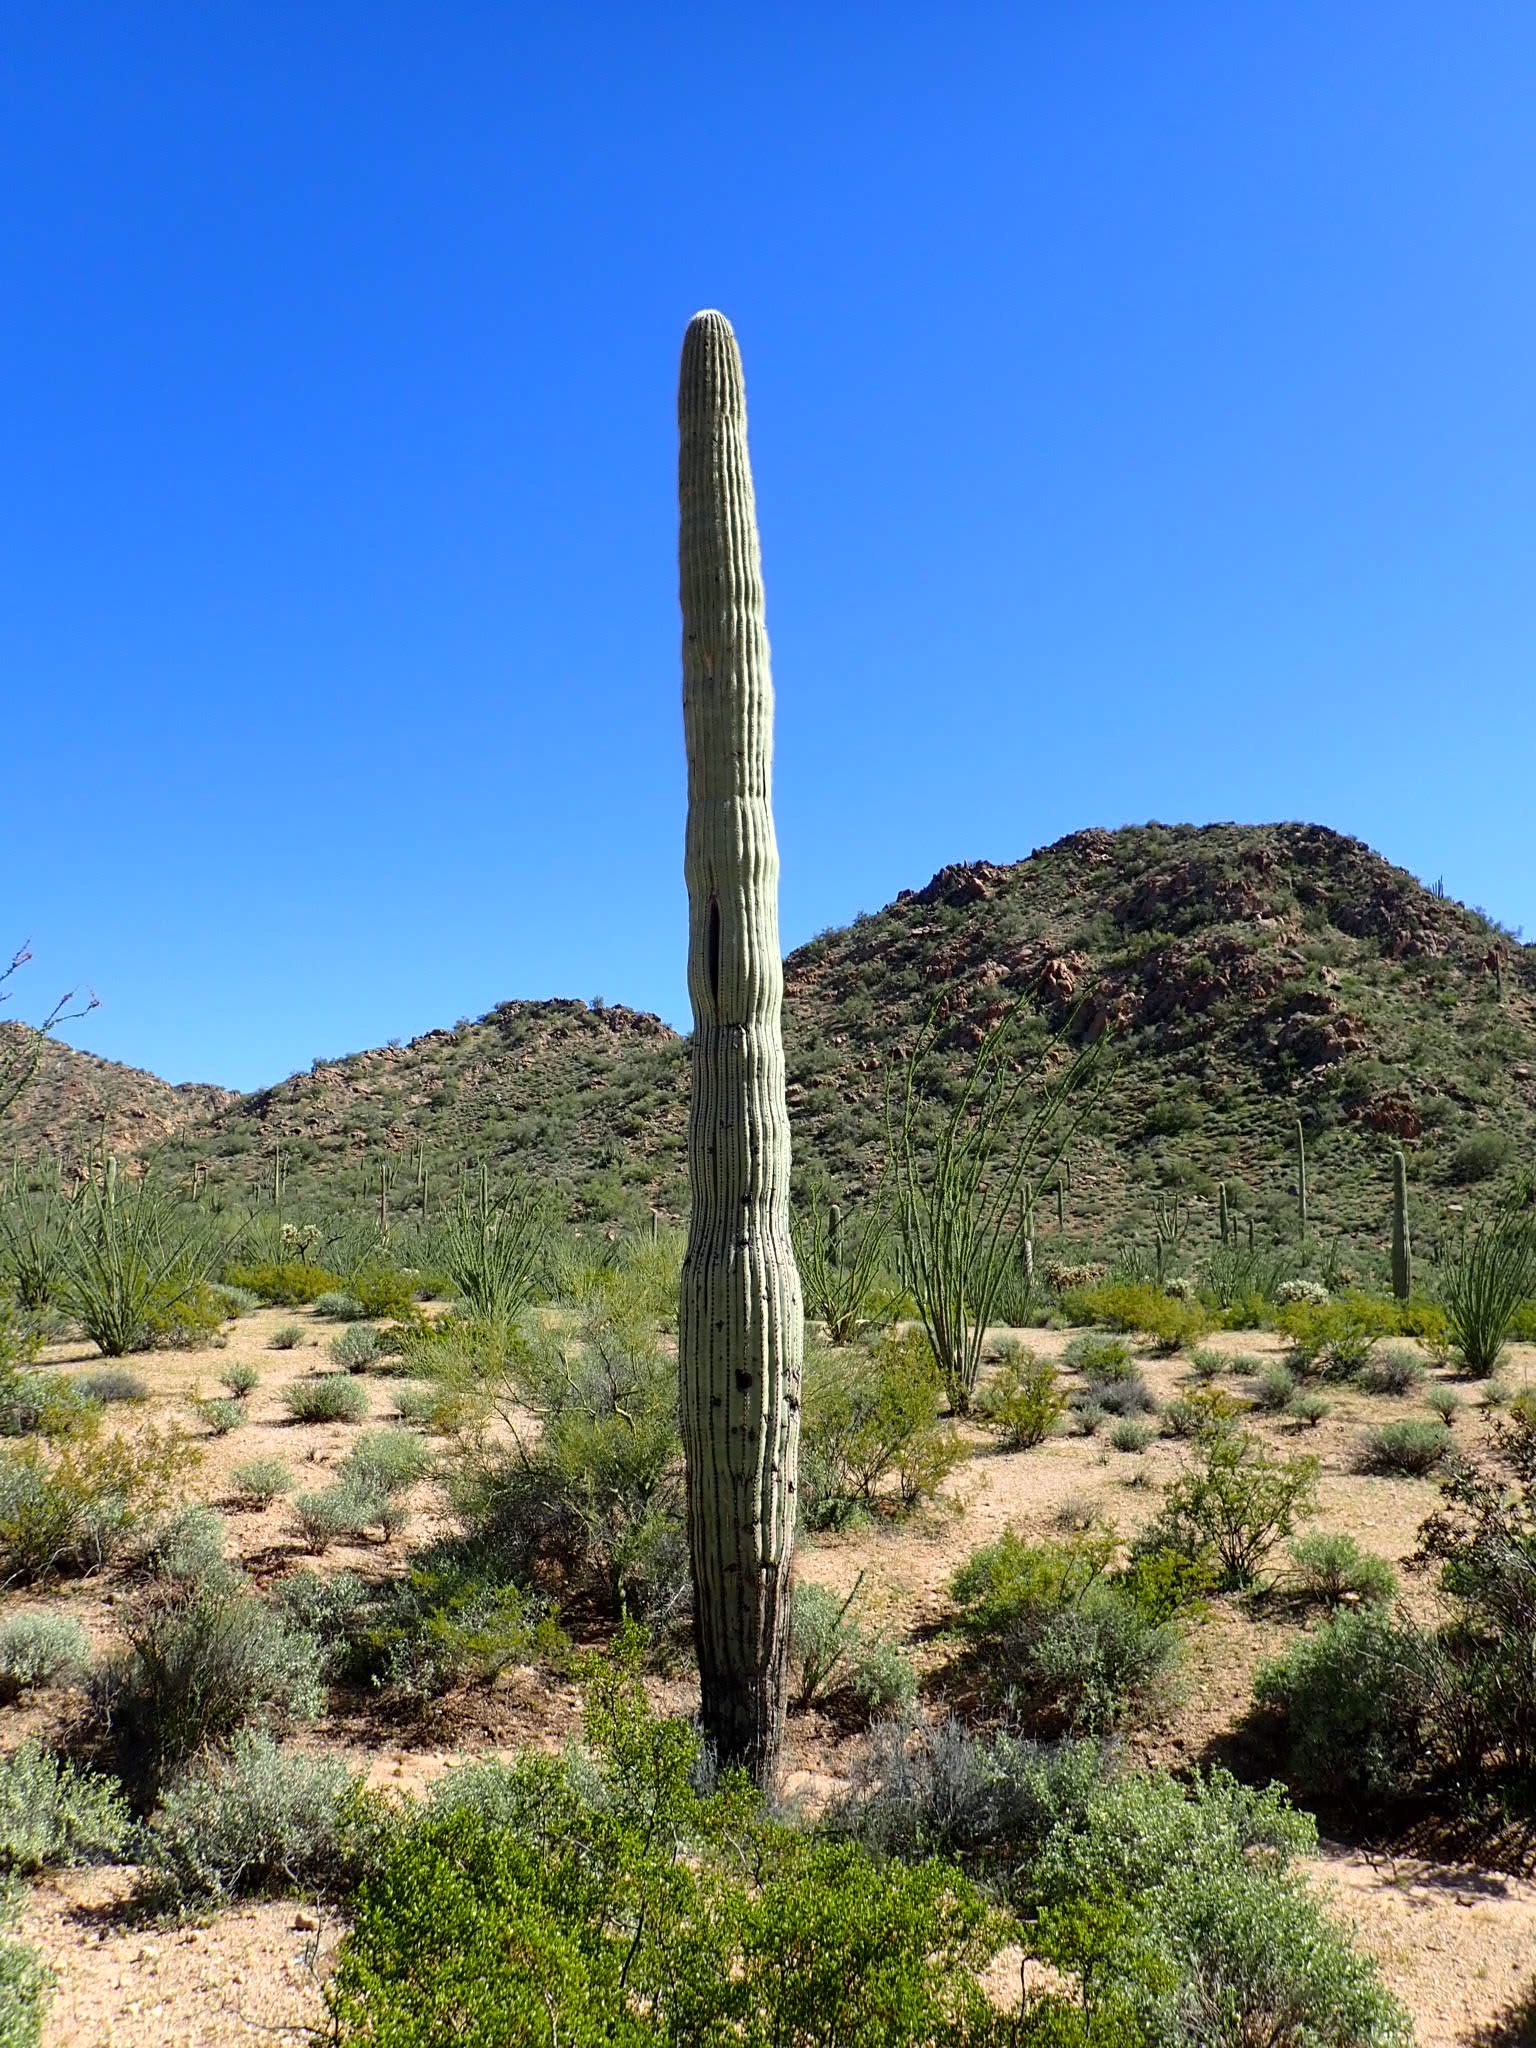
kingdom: Plantae
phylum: Tracheophyta
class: Magnoliopsida
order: Caryophyllales
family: Cactaceae
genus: Carnegiea
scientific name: Carnegiea gigantea
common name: Saguaro
